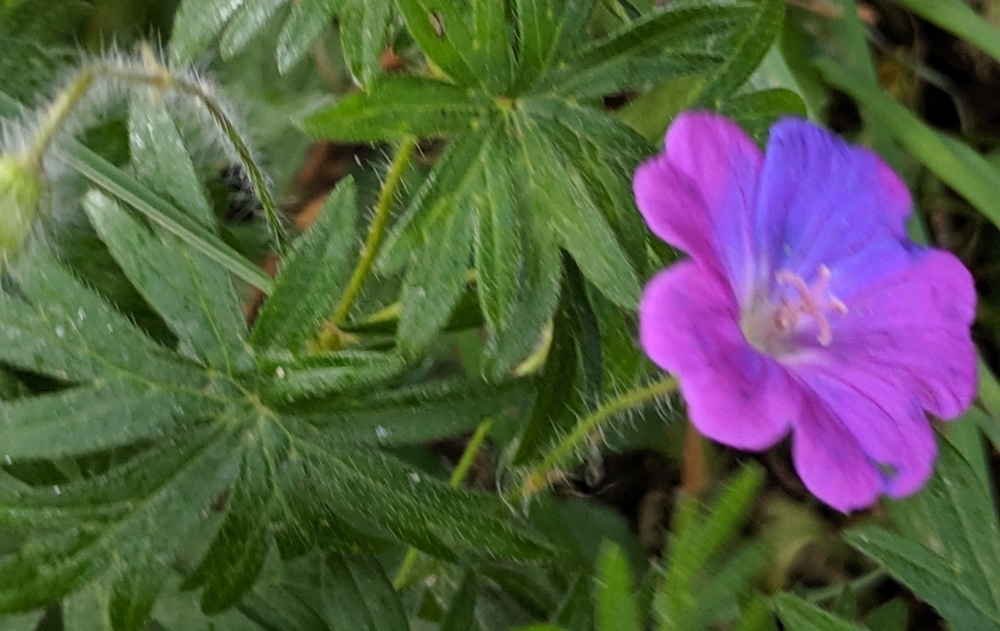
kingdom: Plantae
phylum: Tracheophyta
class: Magnoliopsida
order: Geraniales
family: Geraniaceae
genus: Geranium
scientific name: Geranium sanguineum
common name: Bloody crane's-bill
